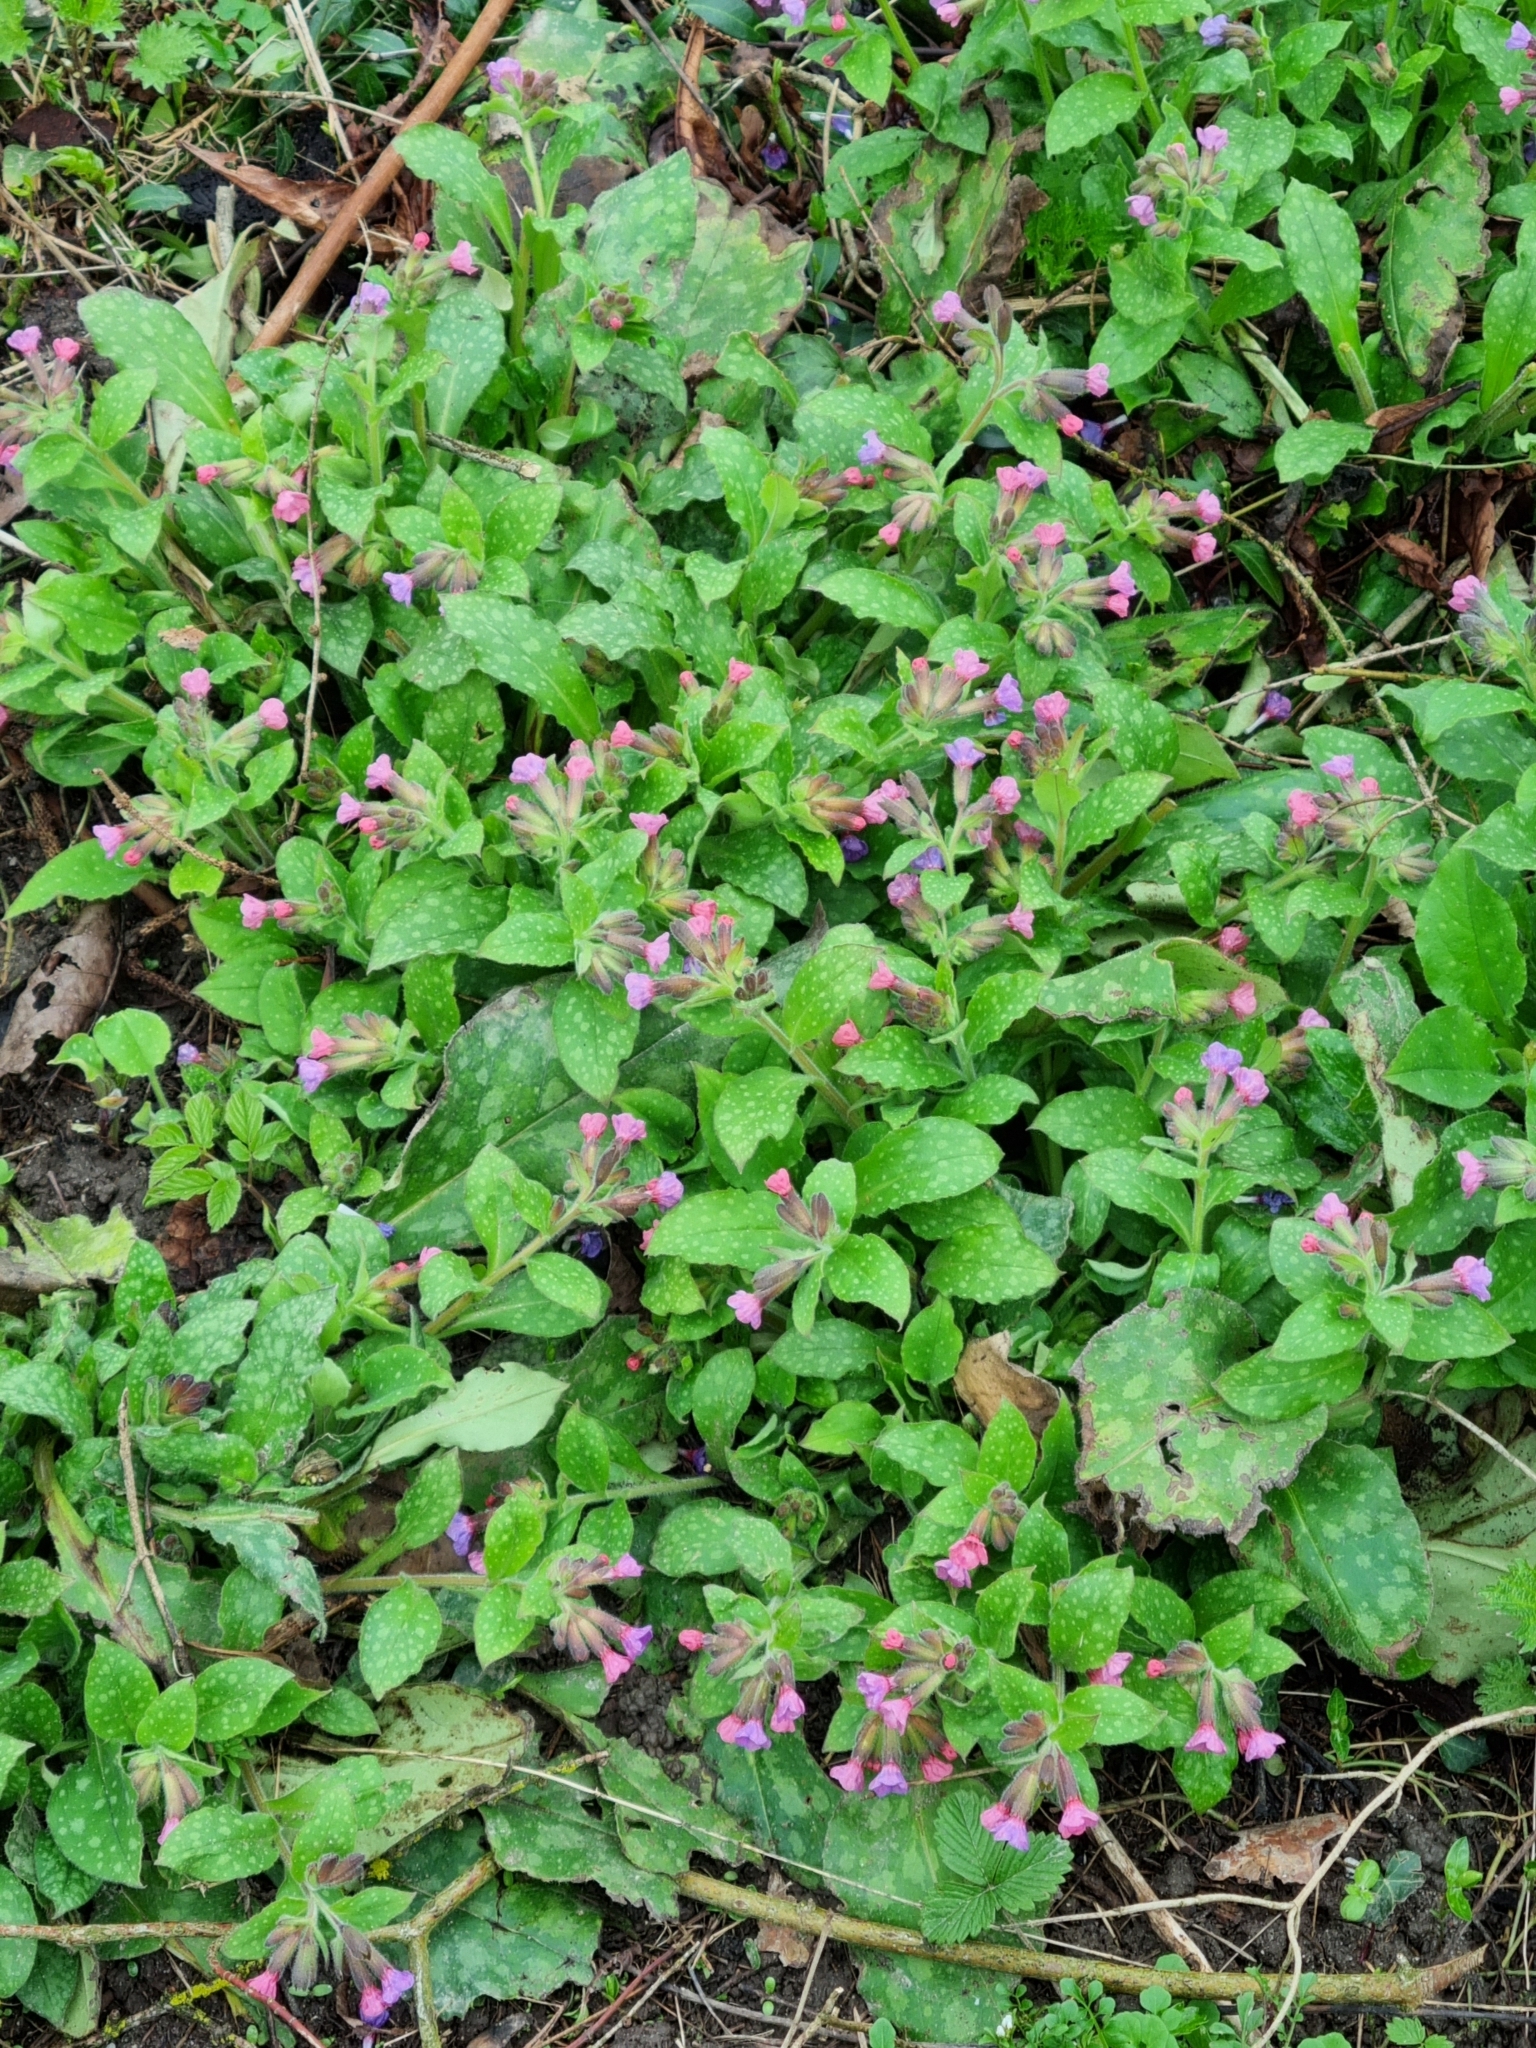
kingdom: Plantae
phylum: Tracheophyta
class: Magnoliopsida
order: Boraginales
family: Boraginaceae
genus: Pulmonaria
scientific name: Pulmonaria officinalis
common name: Lungwort
